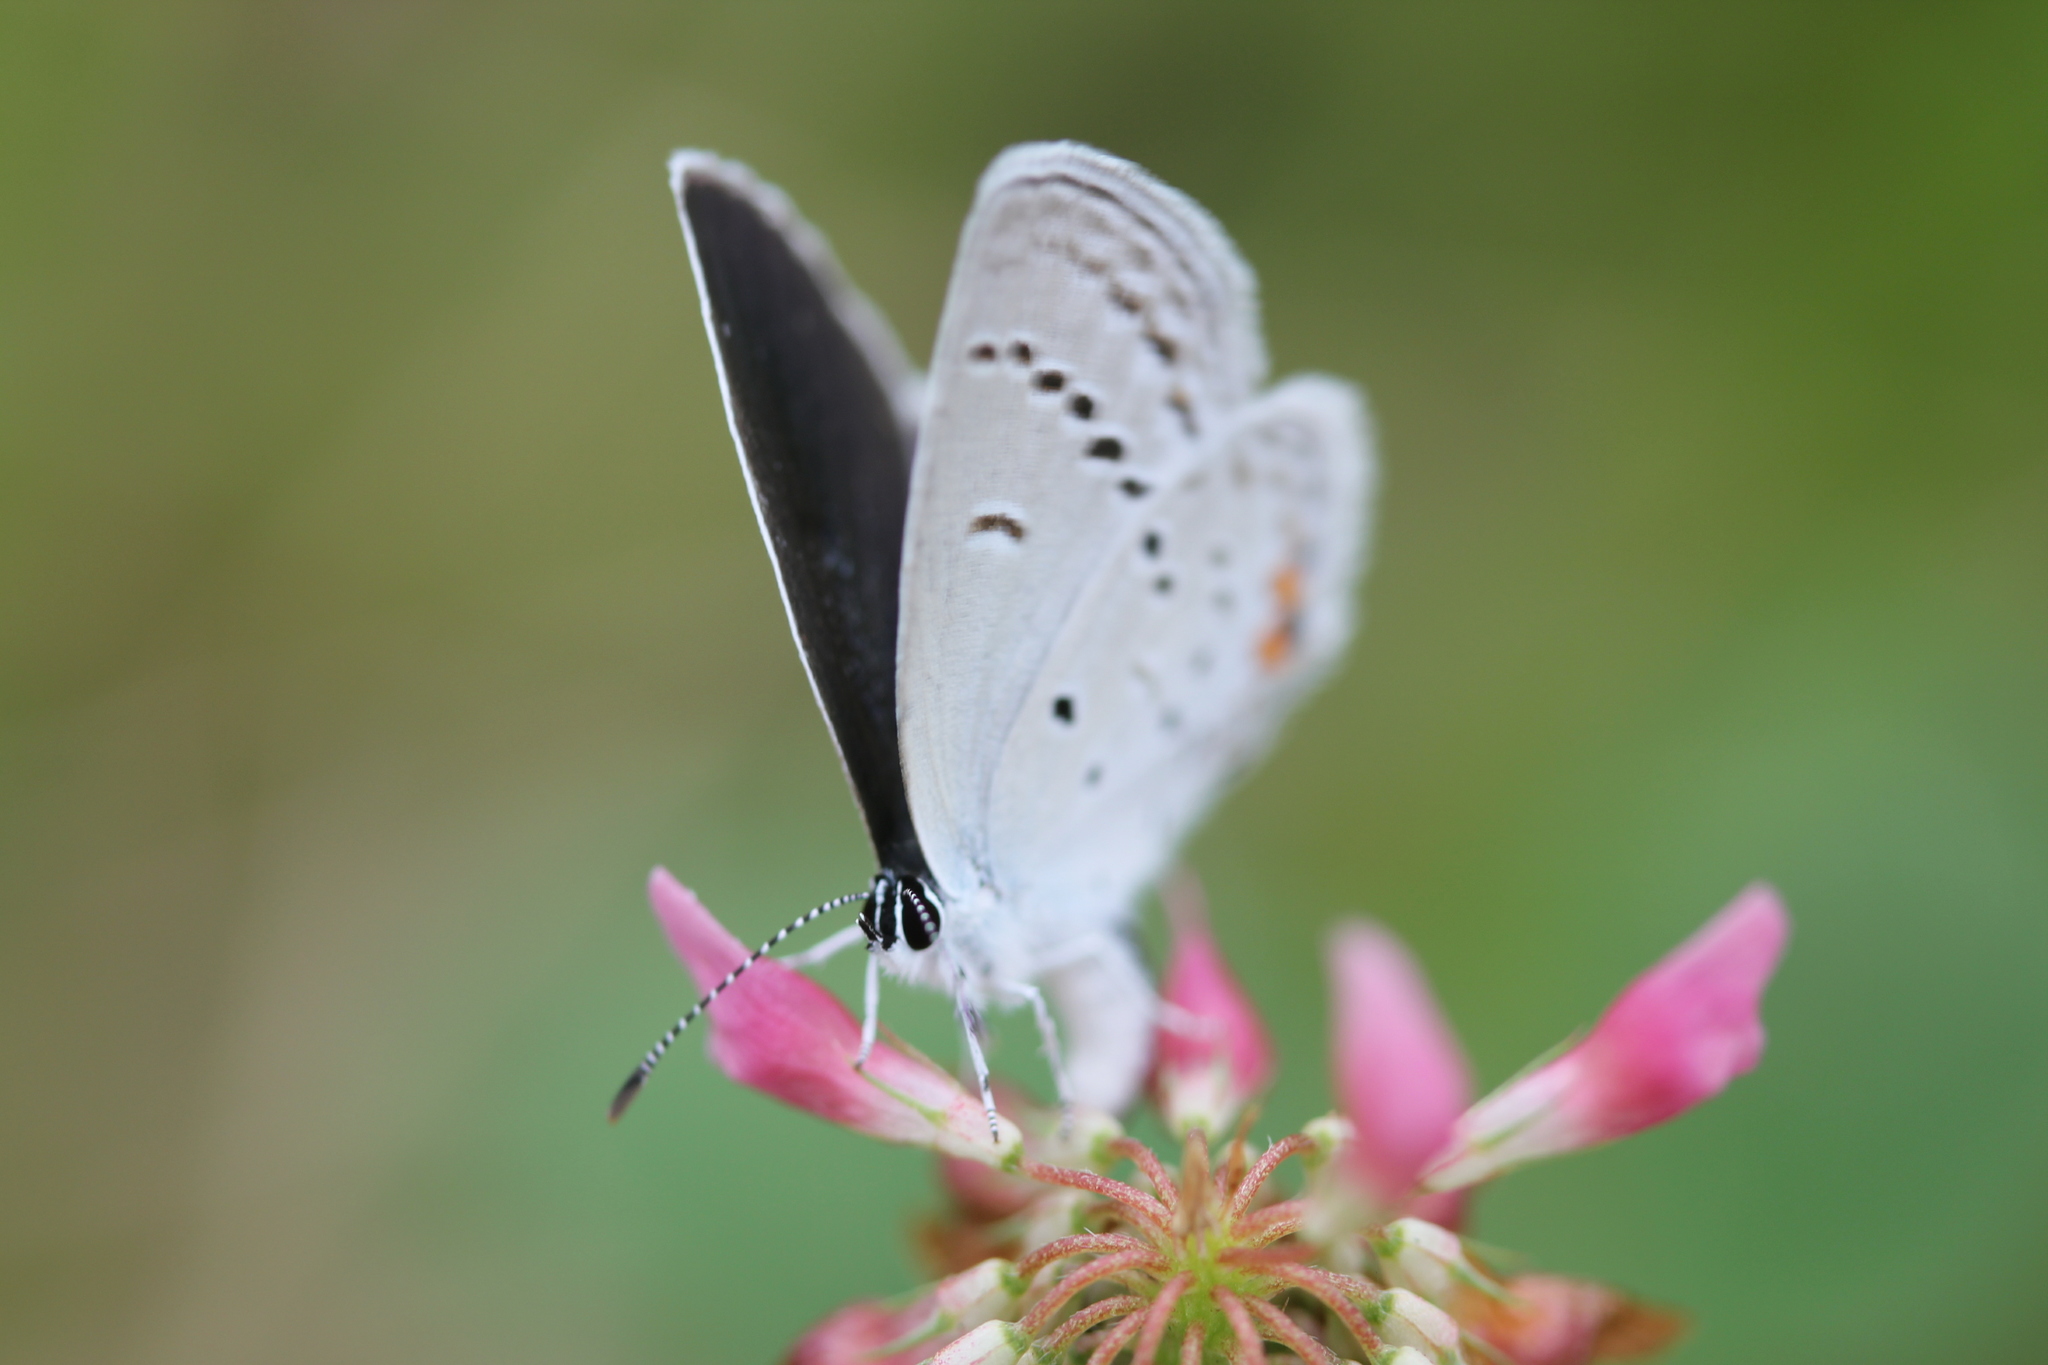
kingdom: Animalia
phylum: Arthropoda
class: Insecta
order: Lepidoptera
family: Lycaenidae
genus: Elkalyce
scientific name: Elkalyce comyntas
